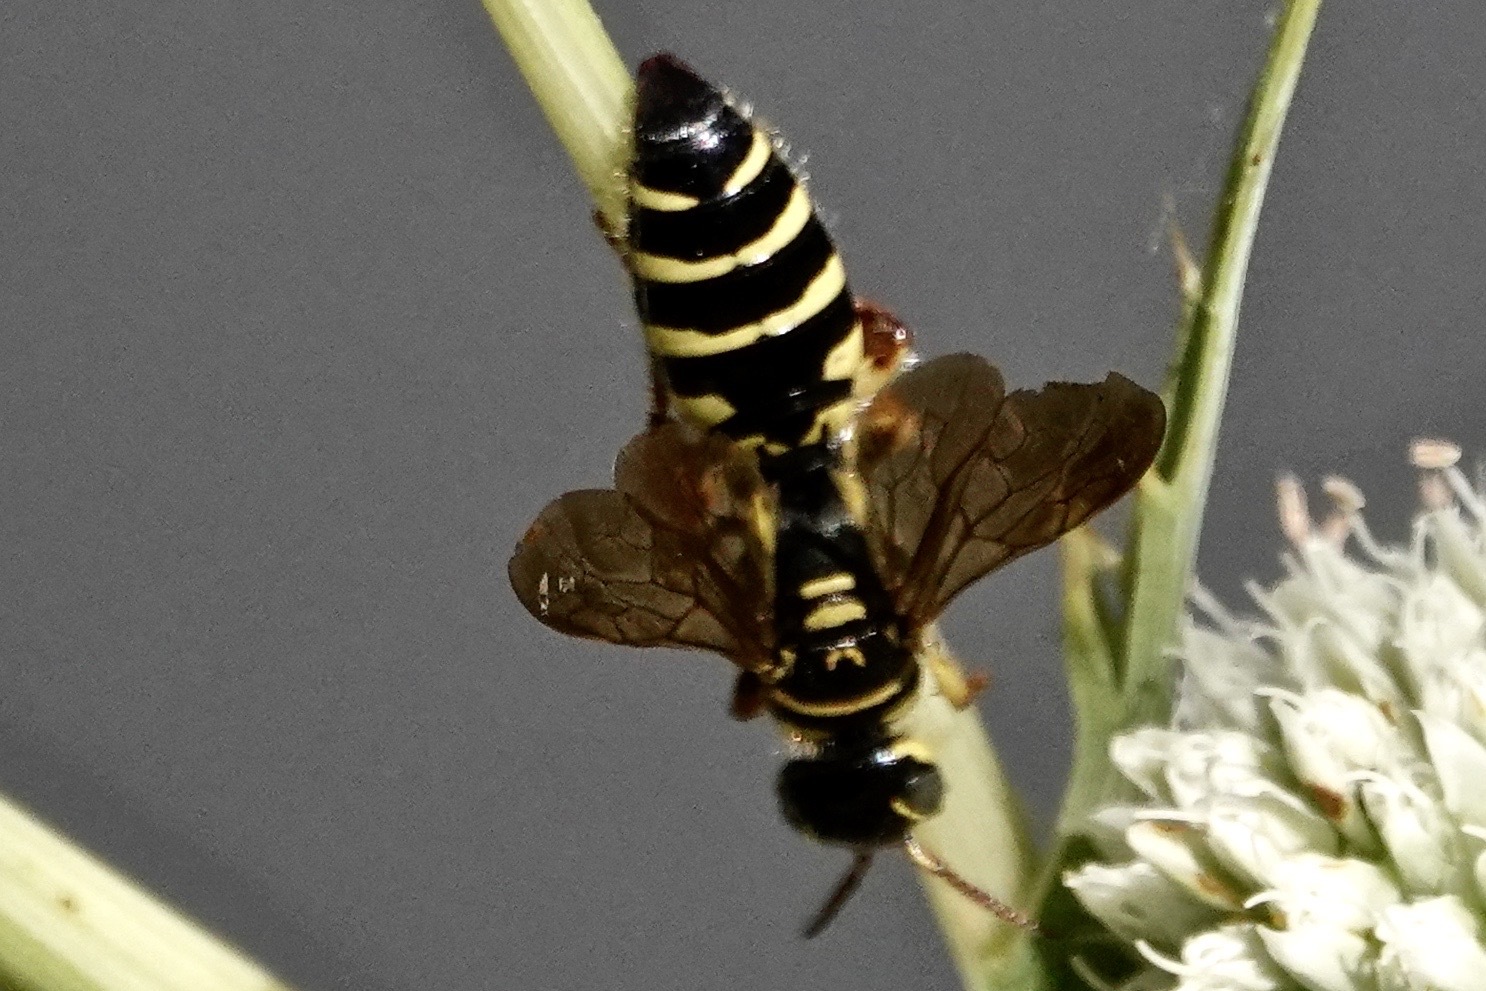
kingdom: Animalia
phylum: Arthropoda
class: Insecta
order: Hymenoptera
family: Tiphiidae
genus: Myzinum
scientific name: Myzinum quinquecinctum
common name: Five-banded thynnid wasp
